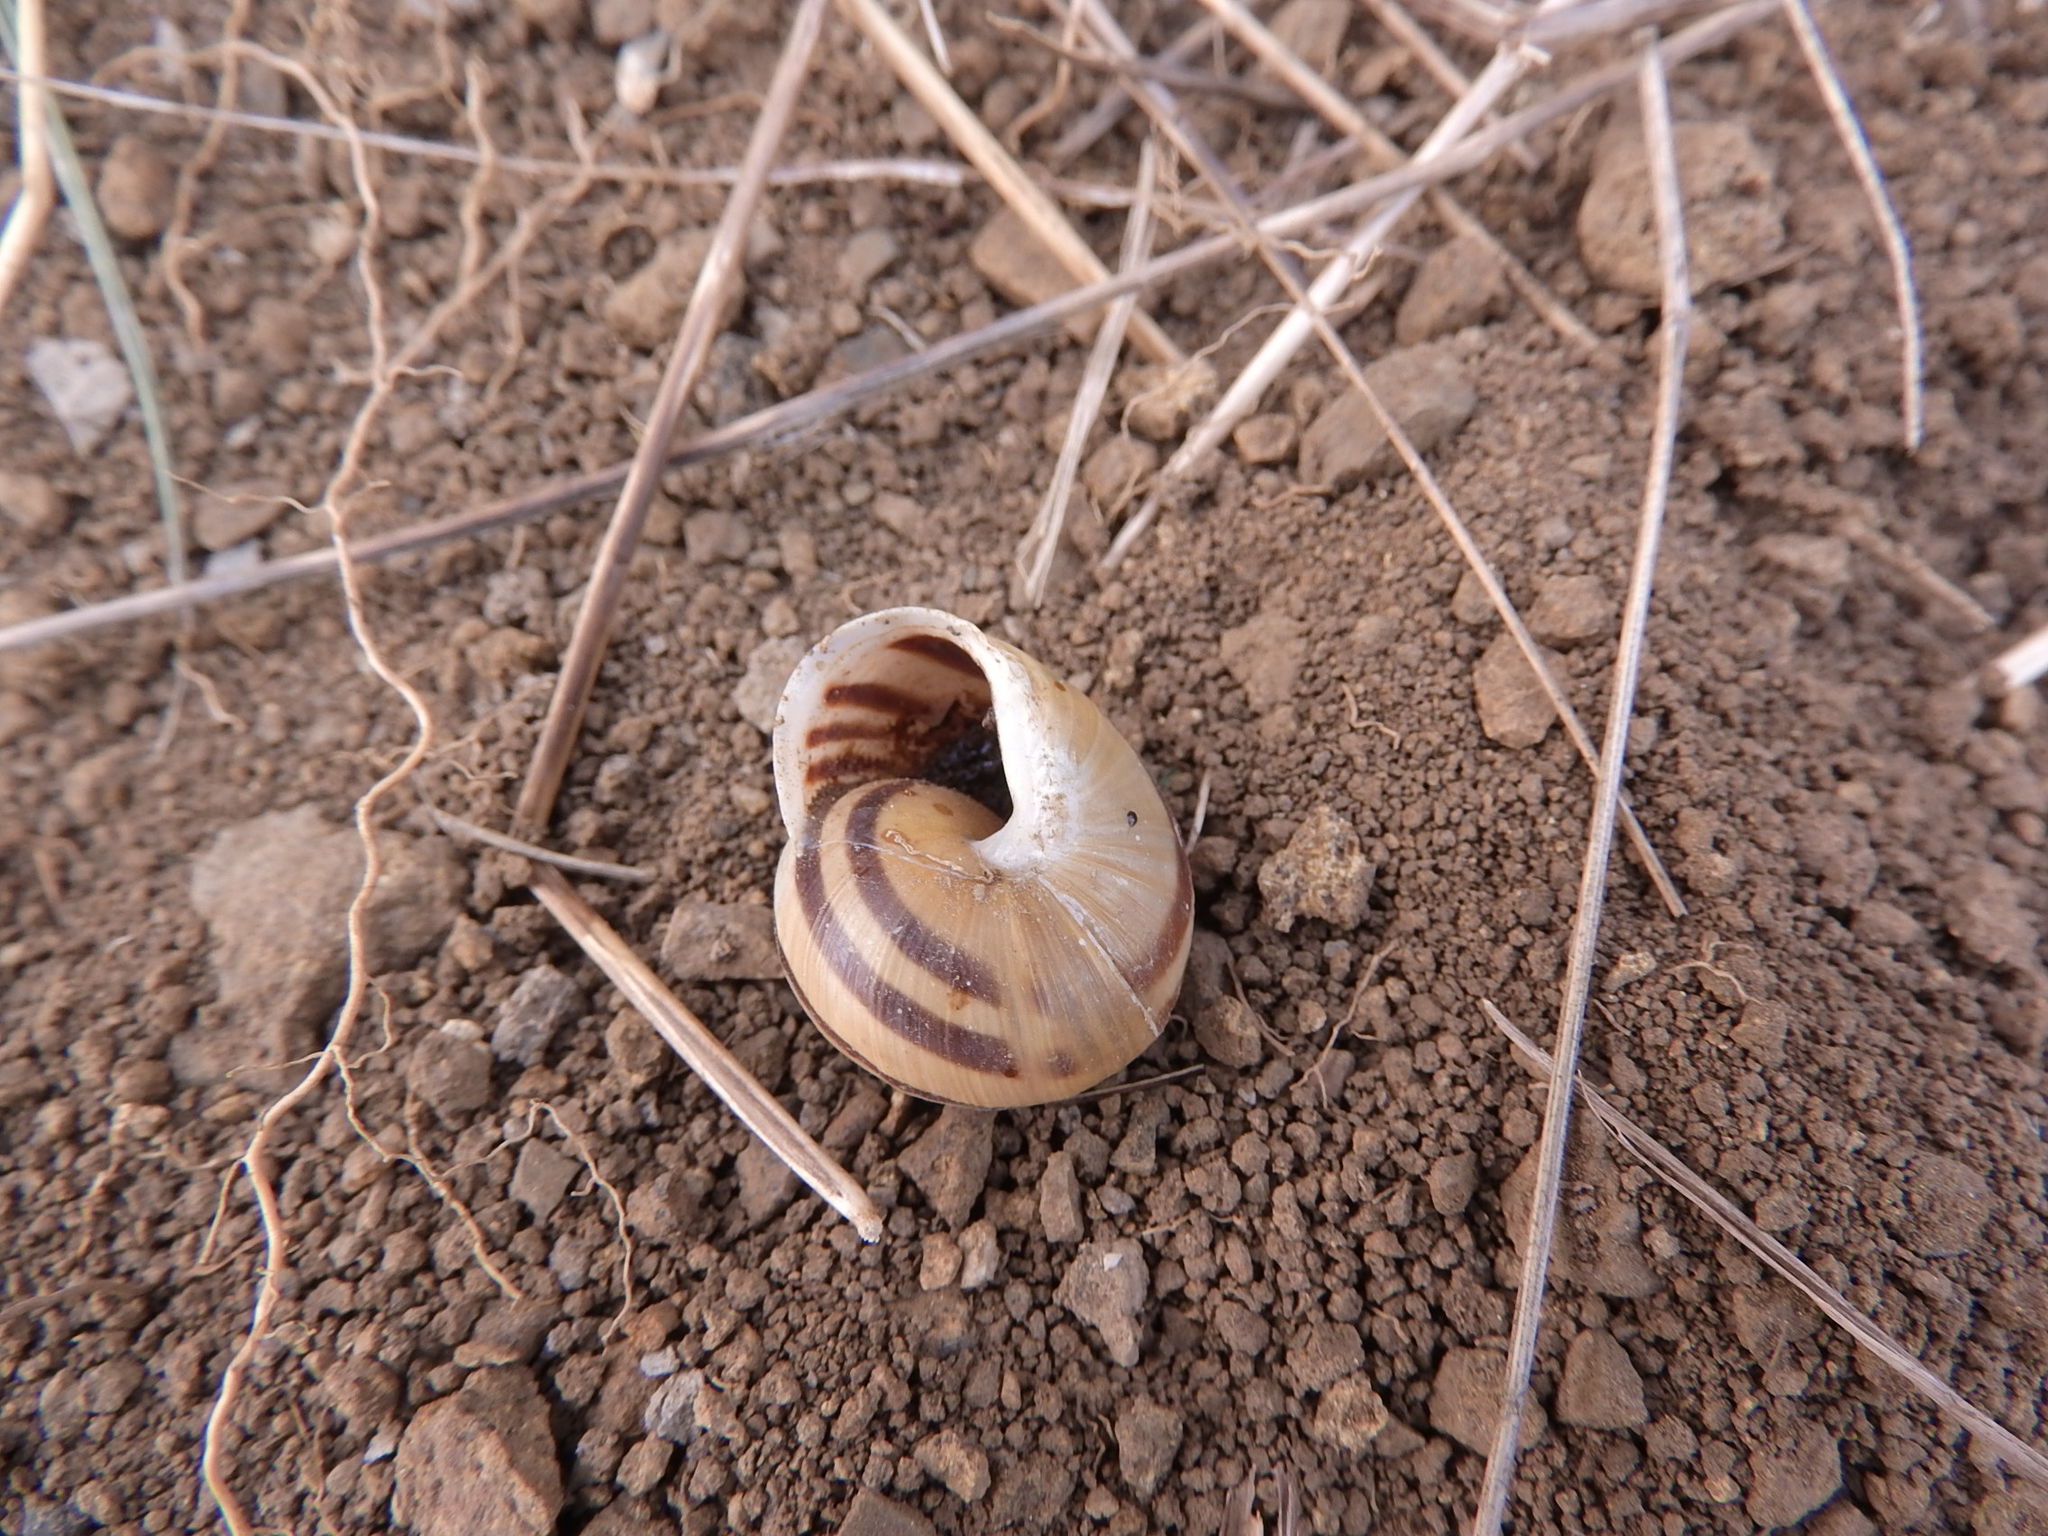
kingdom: Animalia
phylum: Mollusca
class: Gastropoda
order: Stylommatophora
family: Helicidae
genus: Cepaea
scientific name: Cepaea hortensis
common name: White-lip gardensnail
